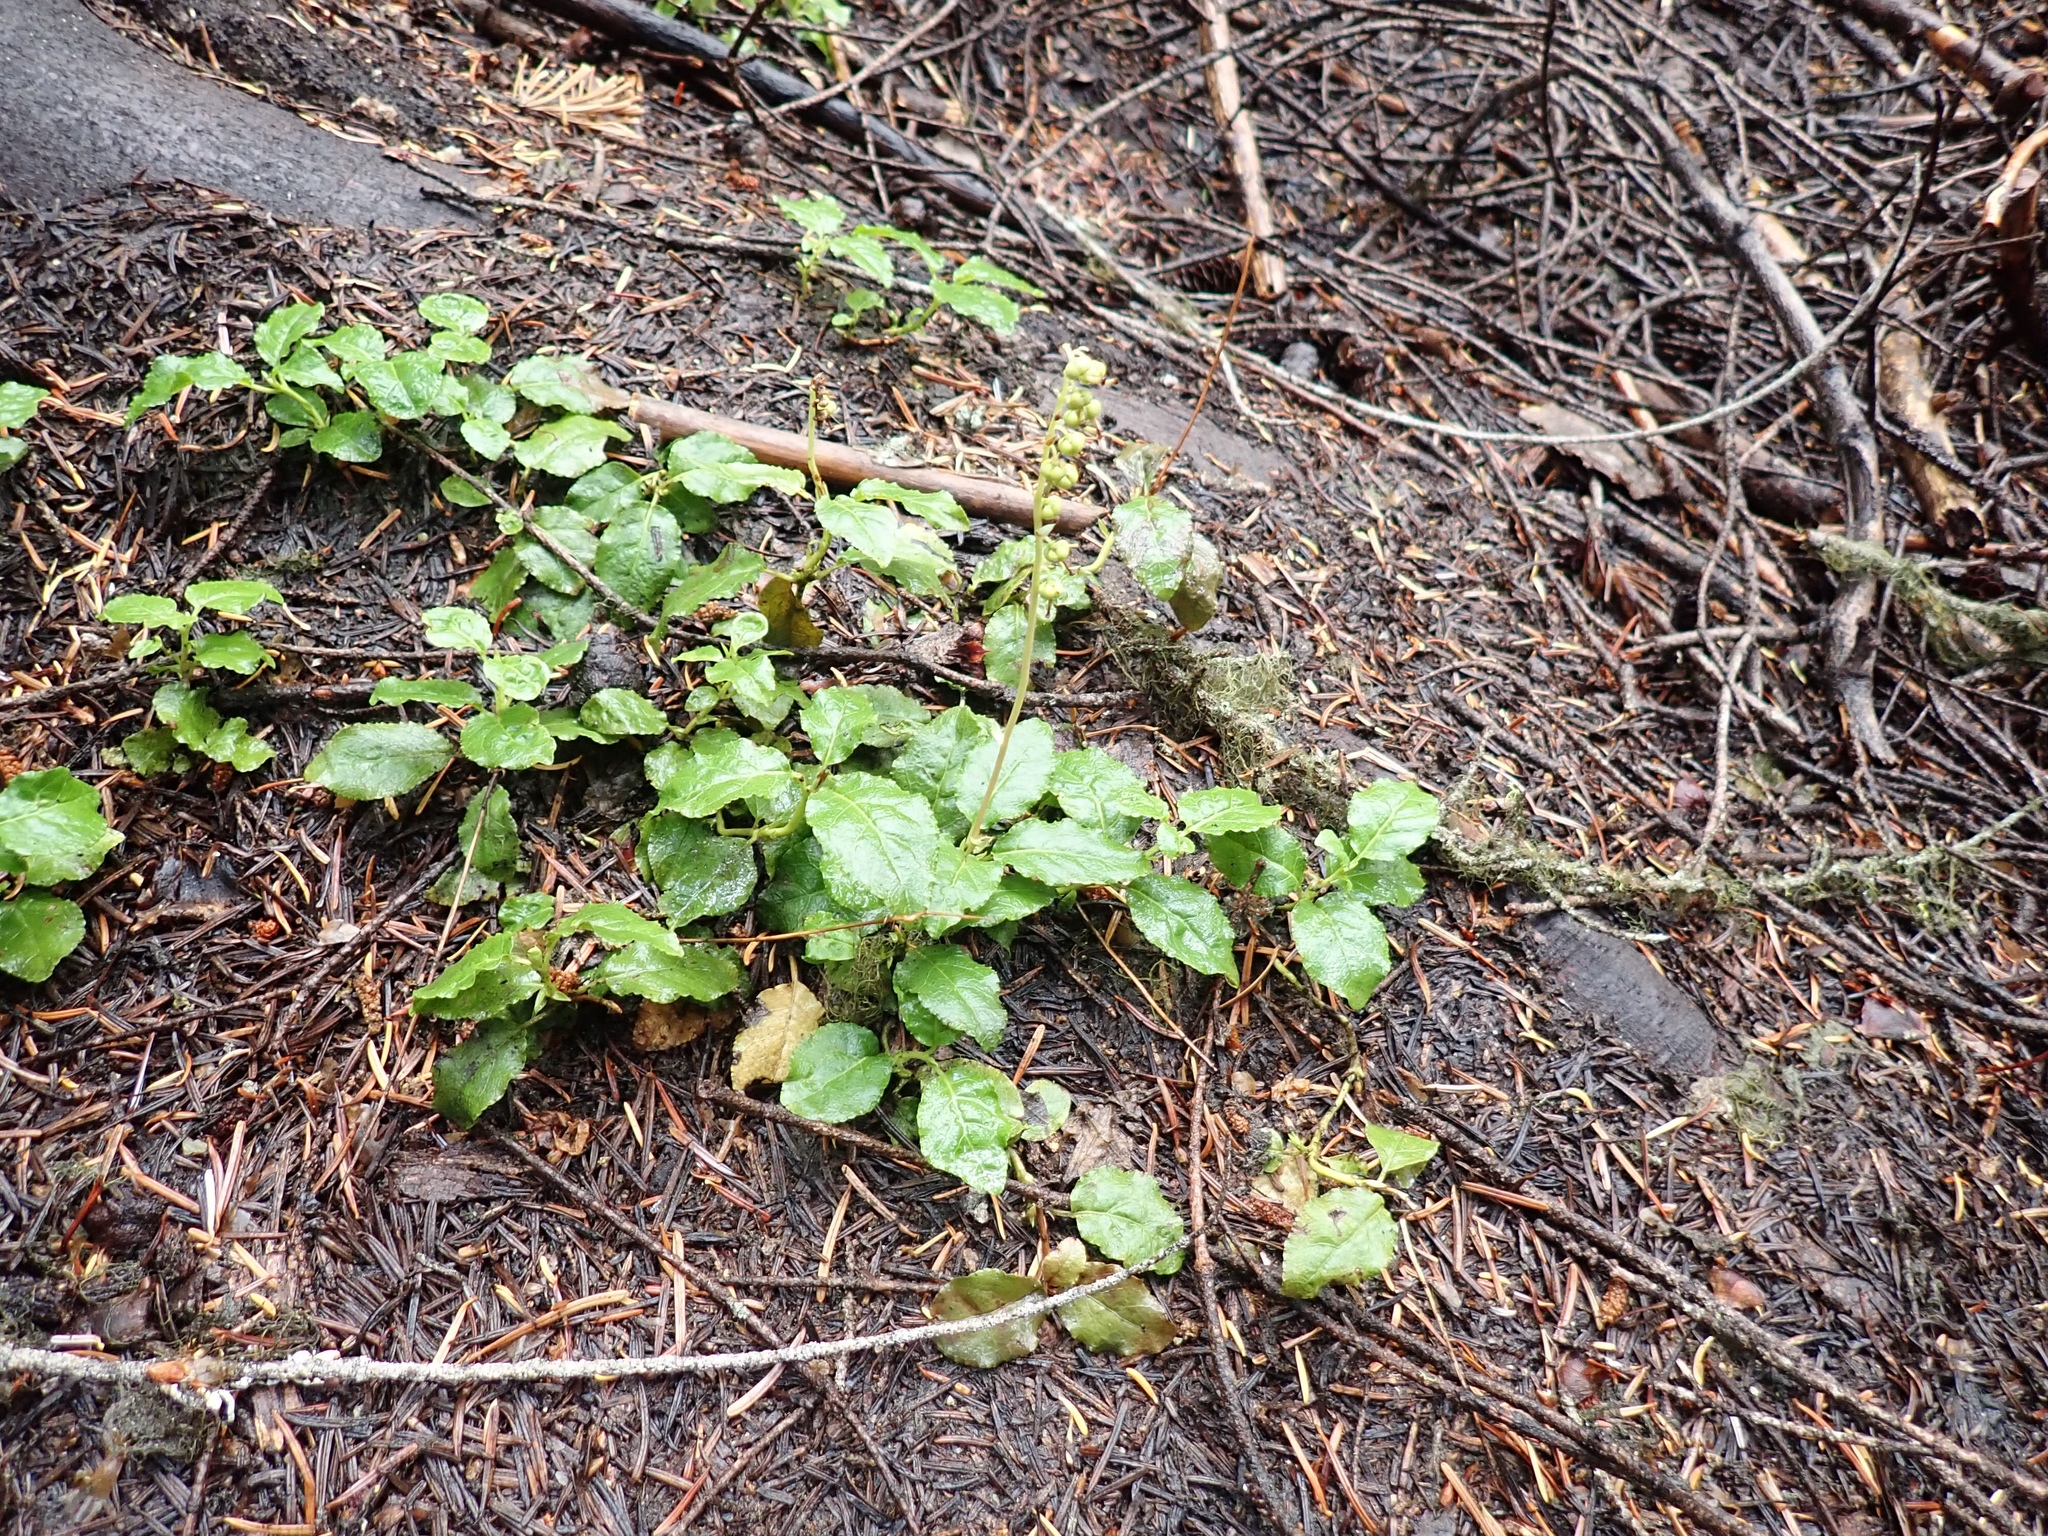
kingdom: Plantae
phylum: Tracheophyta
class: Magnoliopsida
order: Ericales
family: Ericaceae
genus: Orthilia
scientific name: Orthilia secunda
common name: One-sided orthilia
